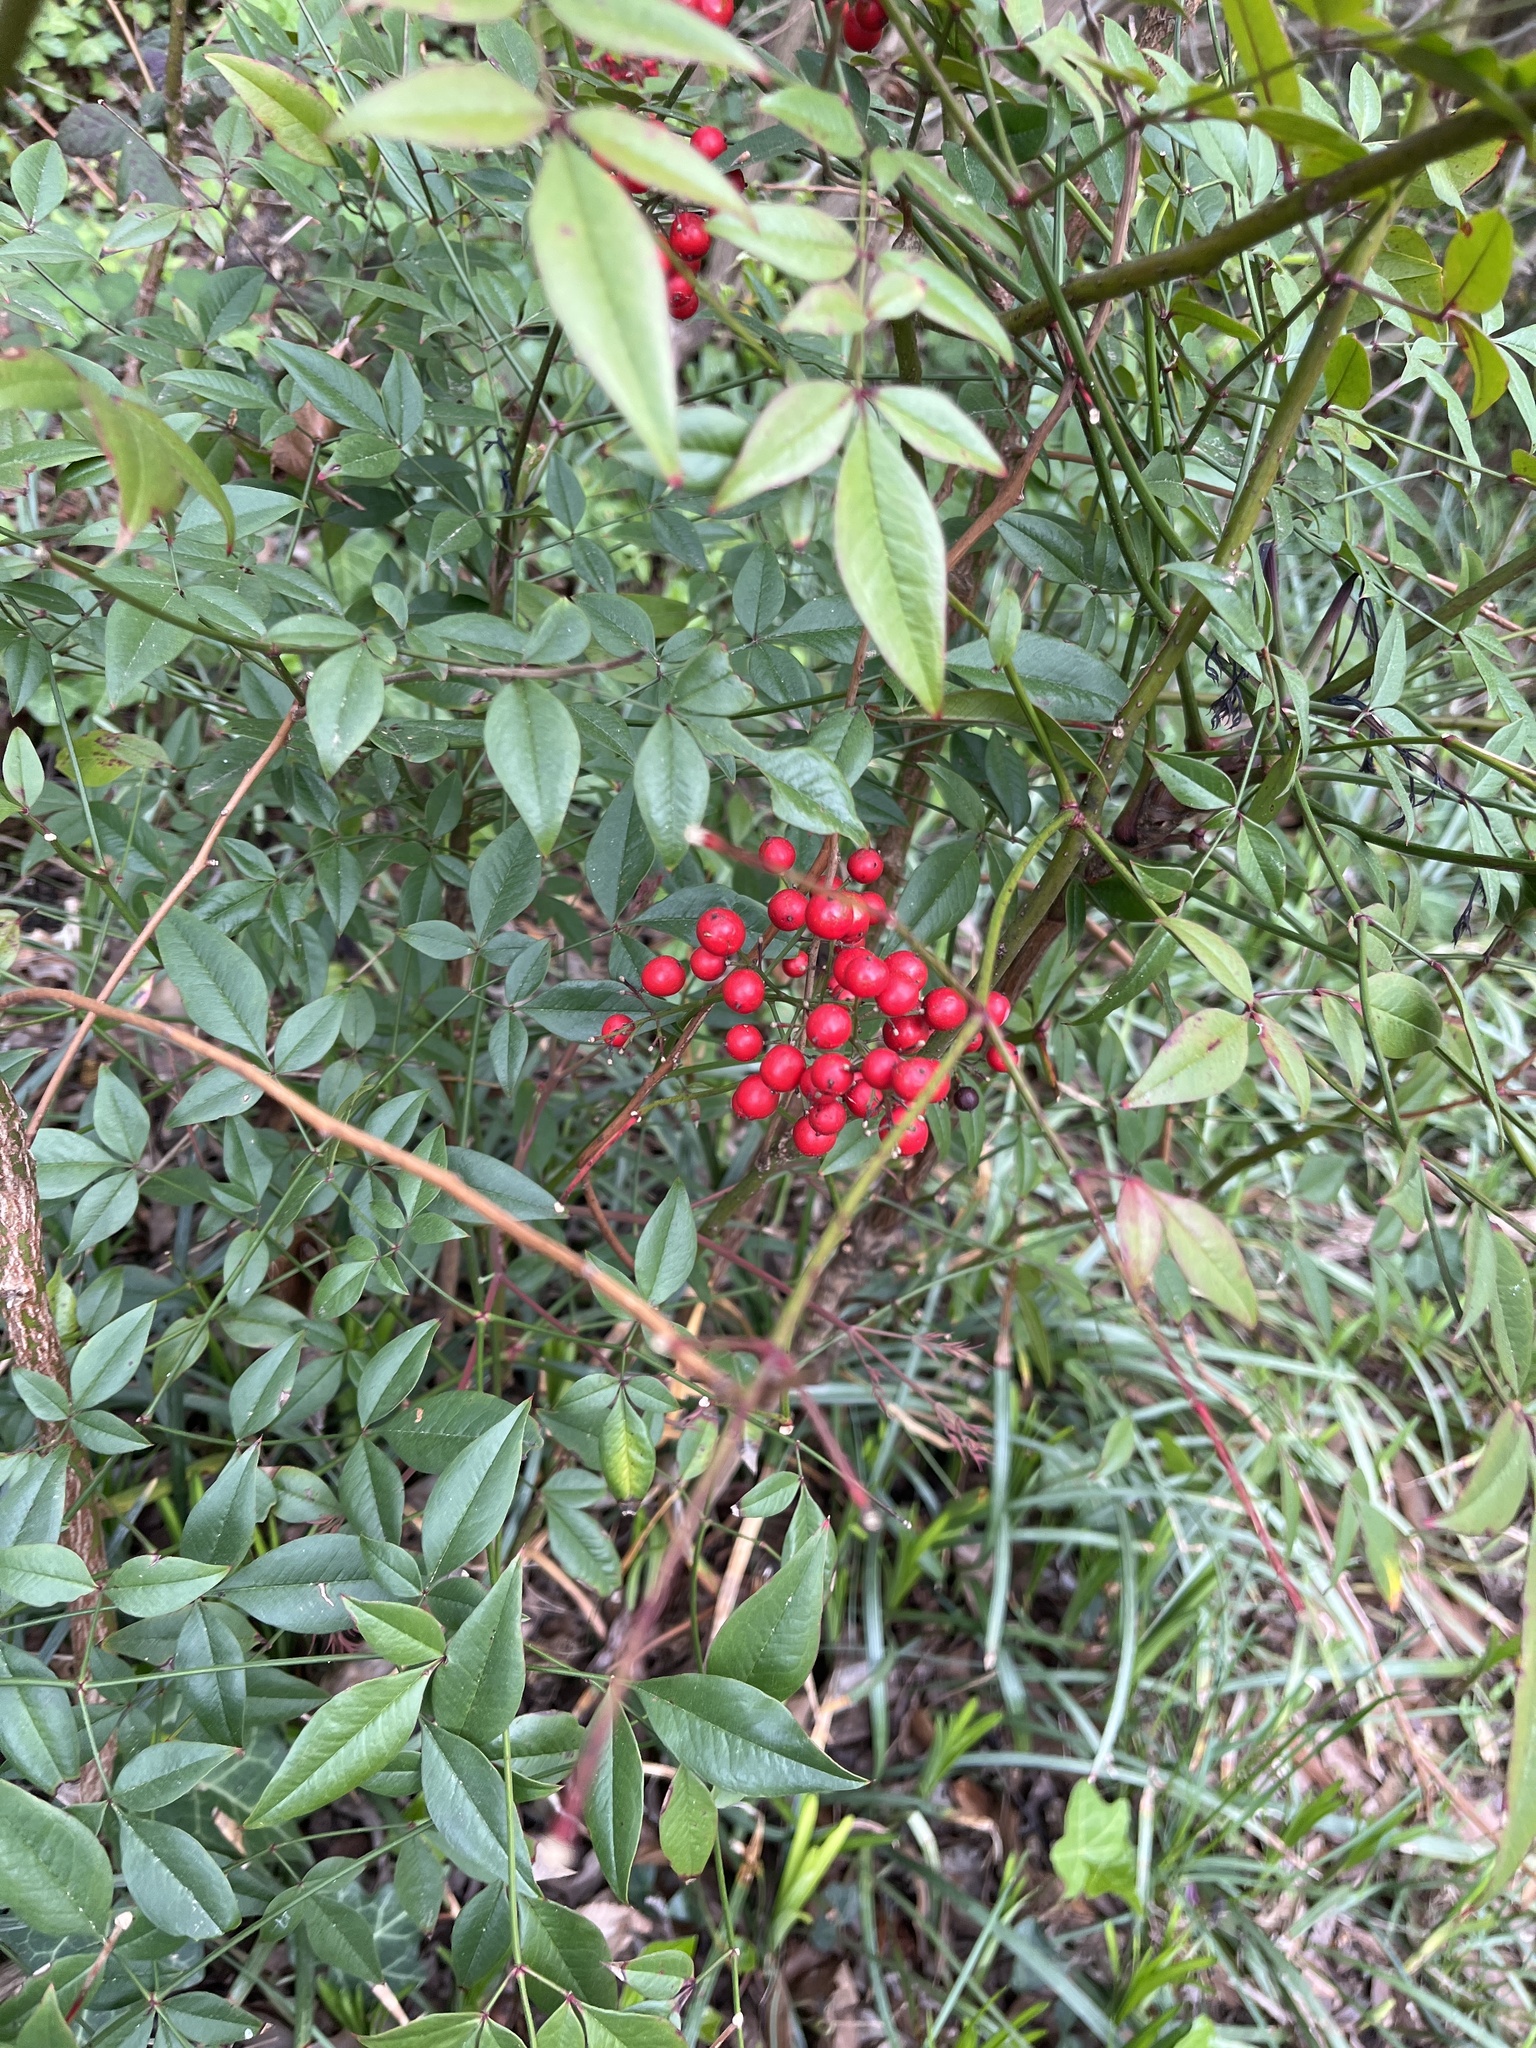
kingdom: Plantae
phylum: Tracheophyta
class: Magnoliopsida
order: Ranunculales
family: Berberidaceae
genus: Nandina
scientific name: Nandina domestica
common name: Sacred bamboo
